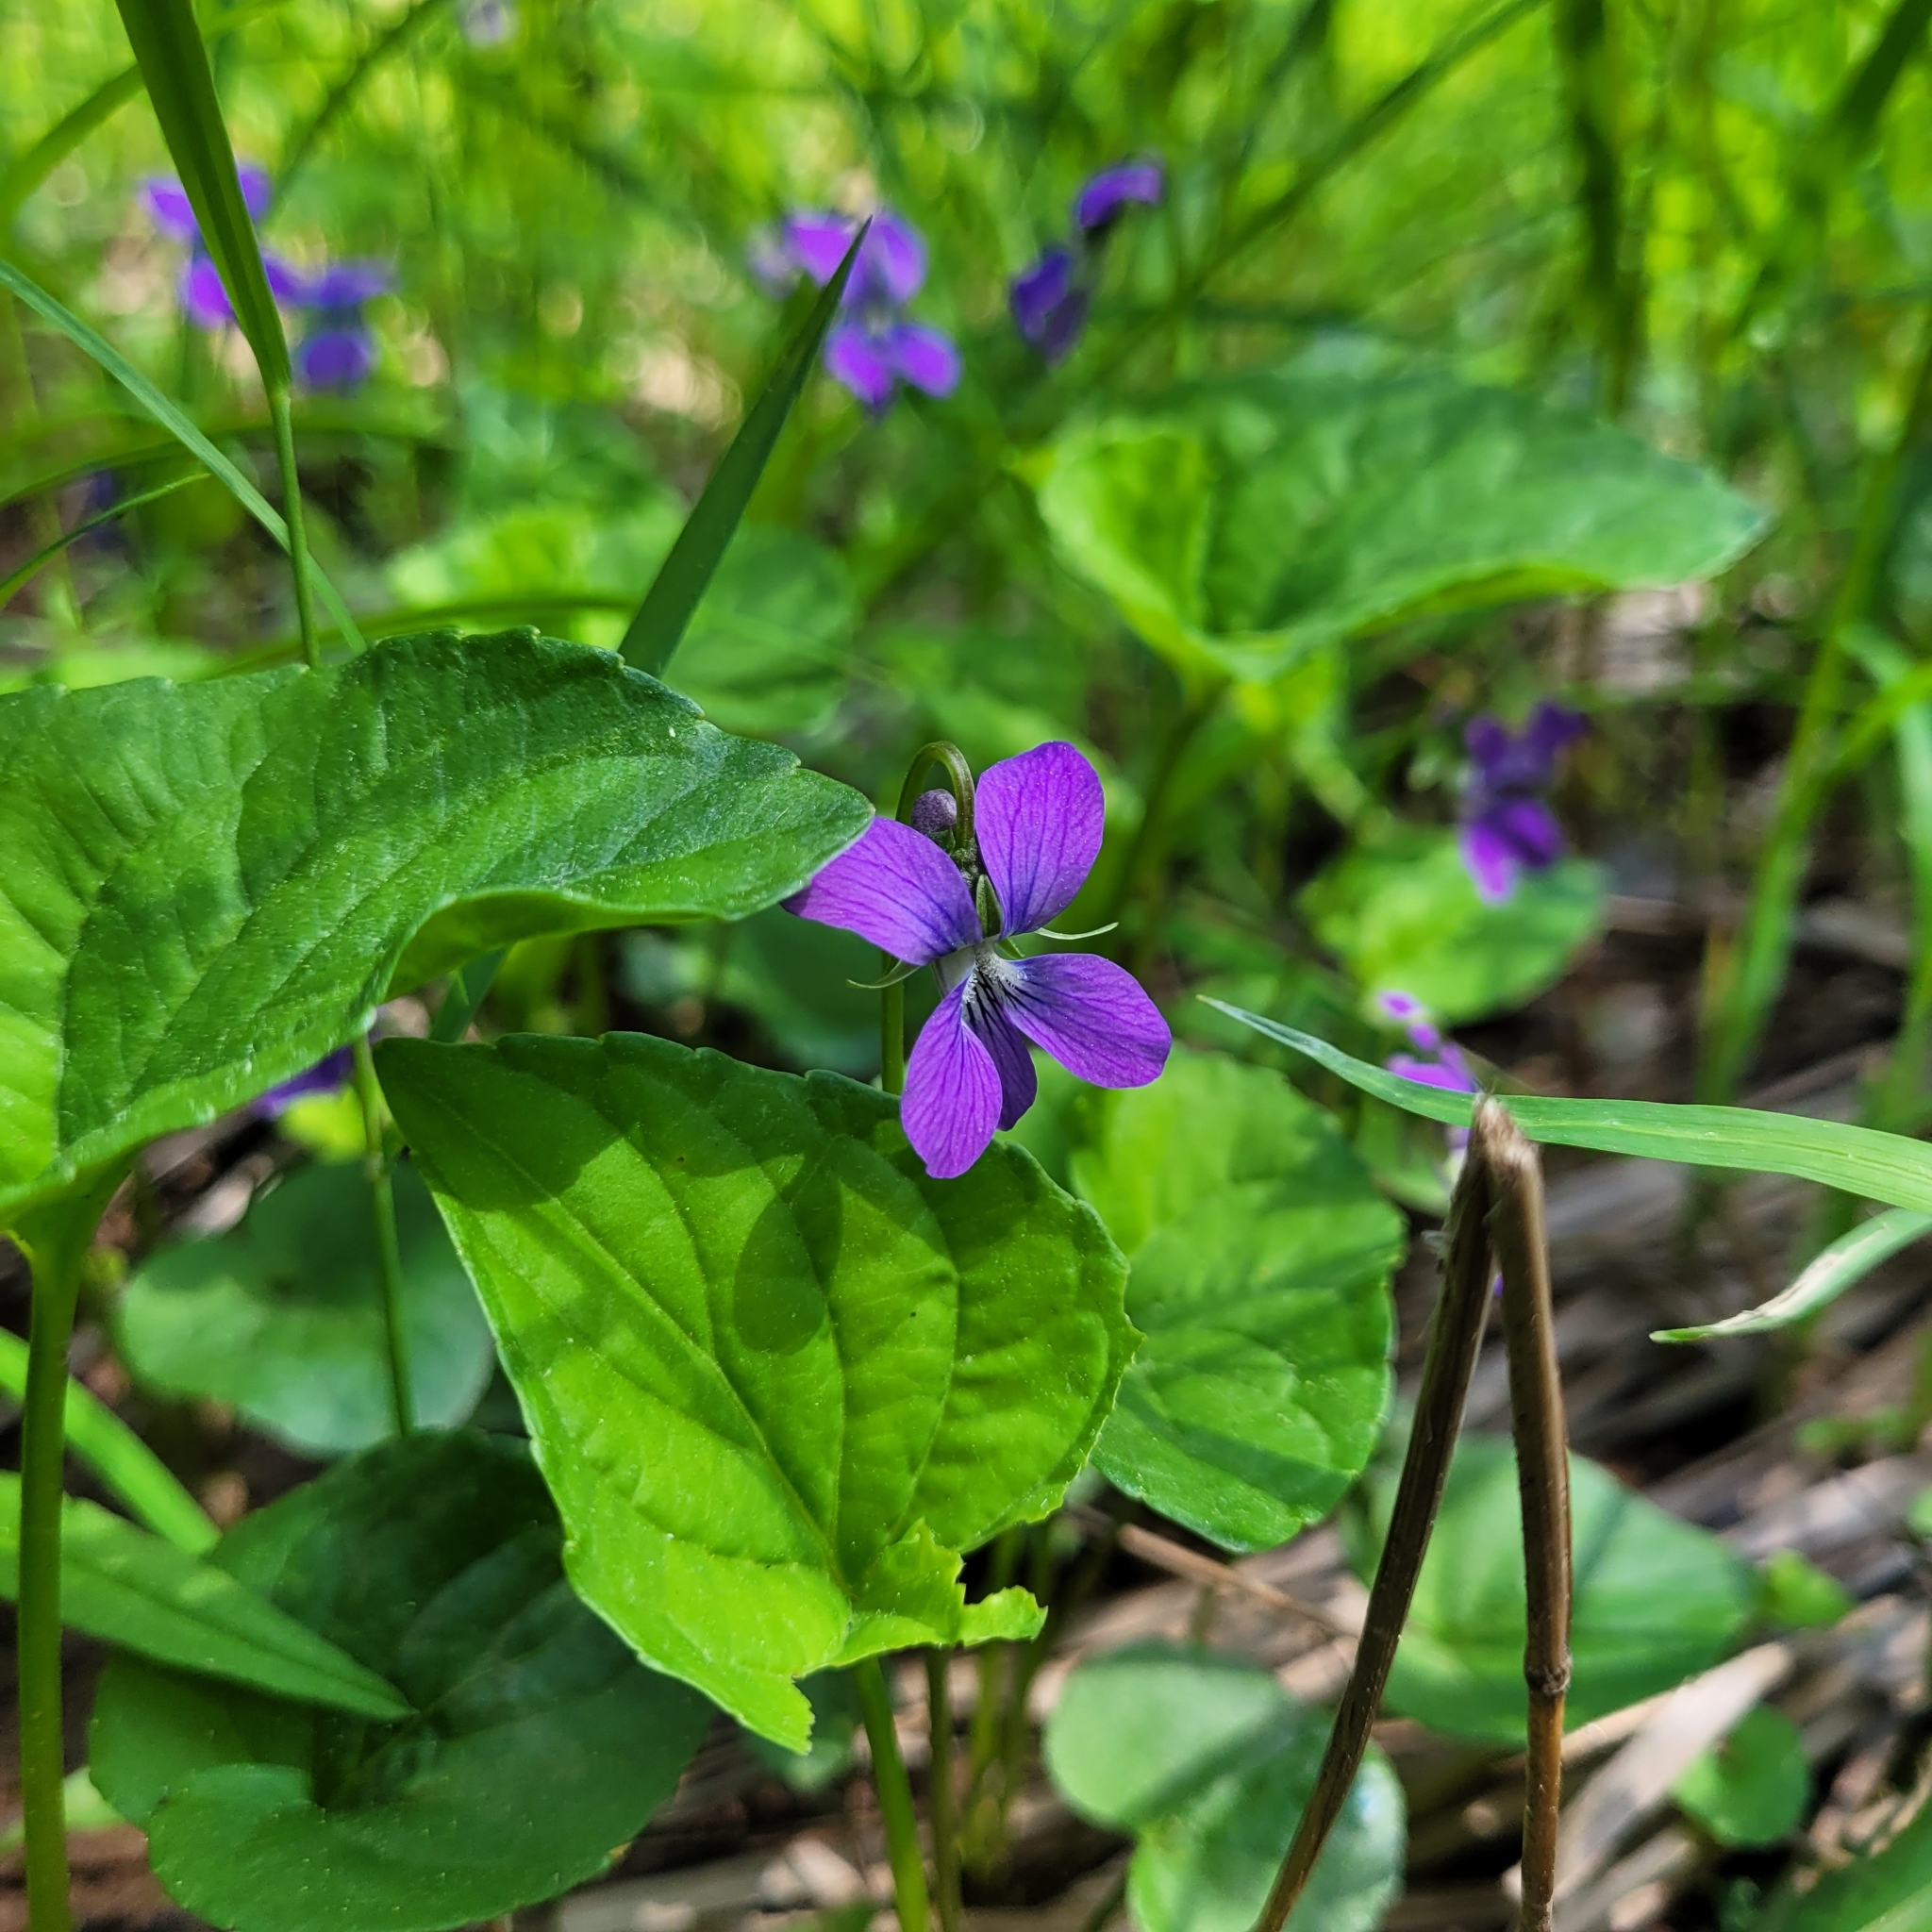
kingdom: Plantae
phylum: Tracheophyta
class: Magnoliopsida
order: Malpighiales
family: Violaceae
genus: Viola
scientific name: Viola cucullata
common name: Marsh blue violet
